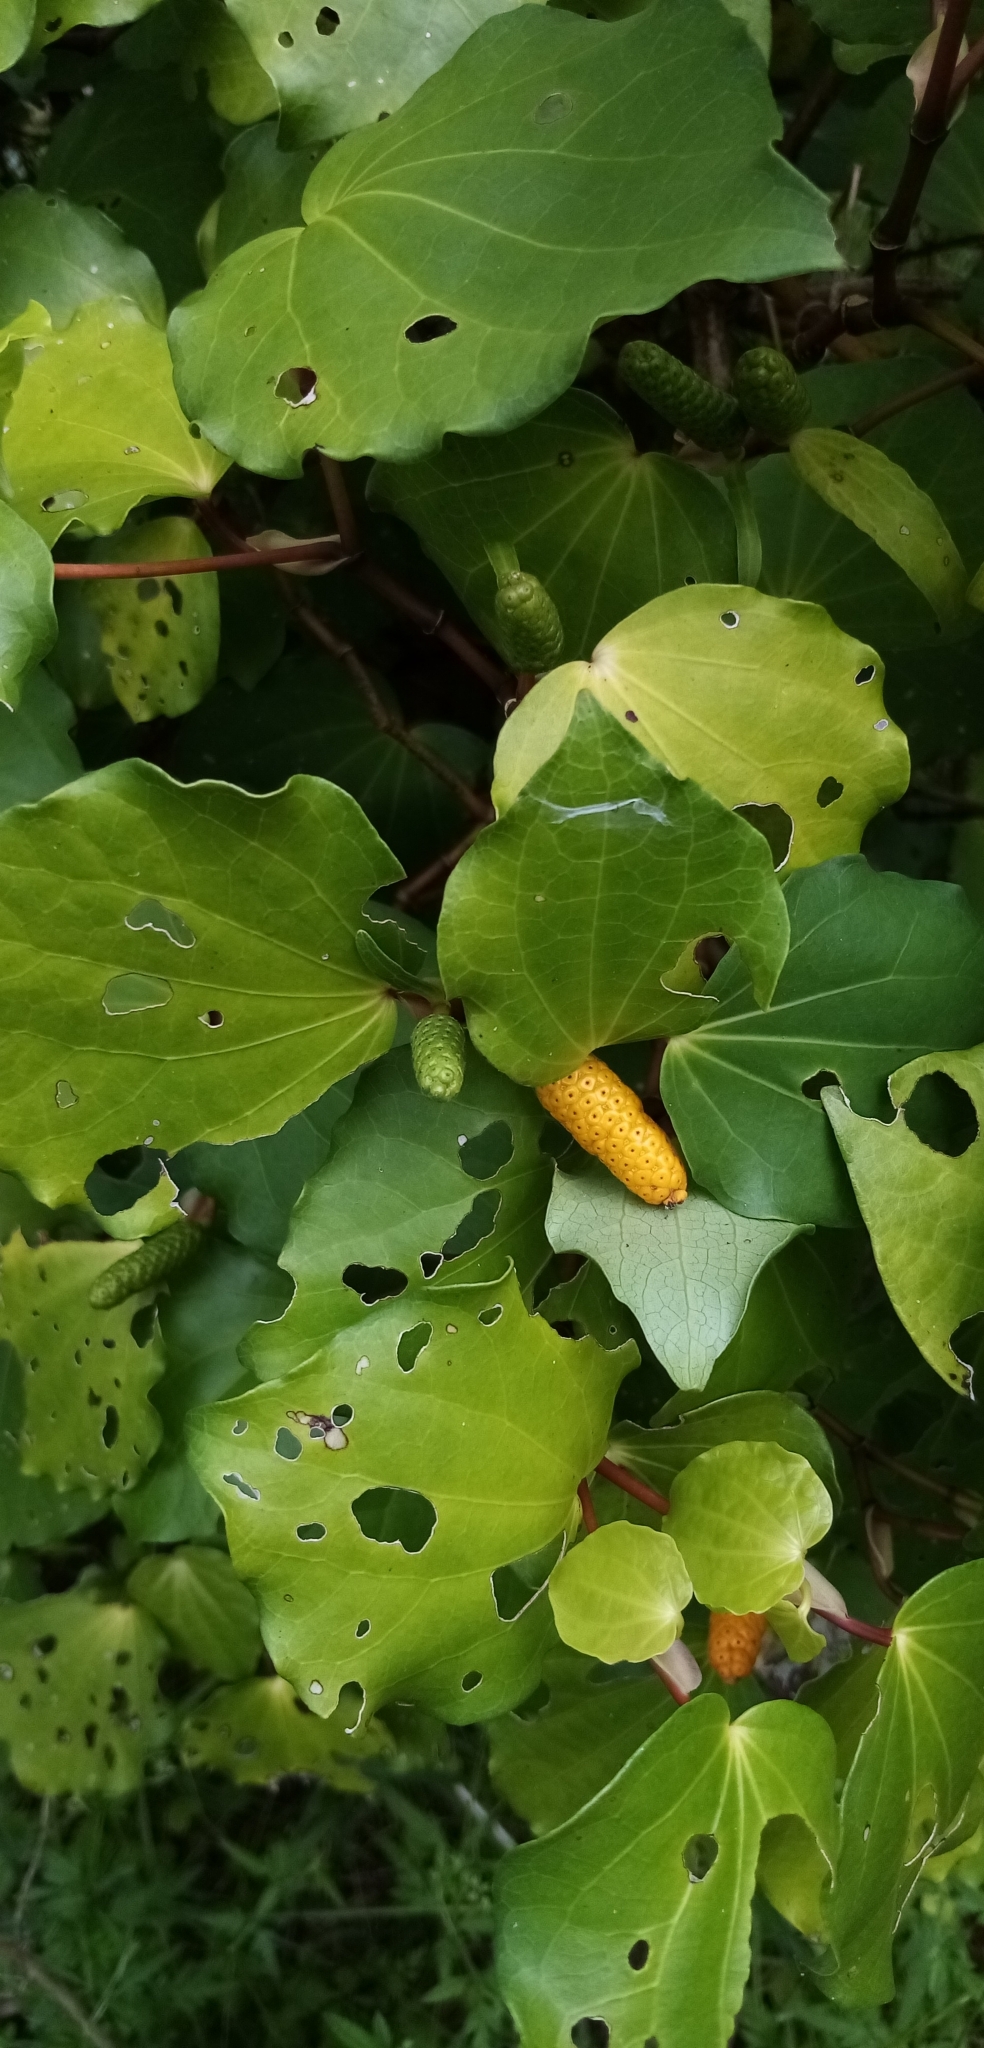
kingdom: Plantae
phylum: Tracheophyta
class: Magnoliopsida
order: Piperales
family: Piperaceae
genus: Macropiper
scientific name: Macropiper excelsum
